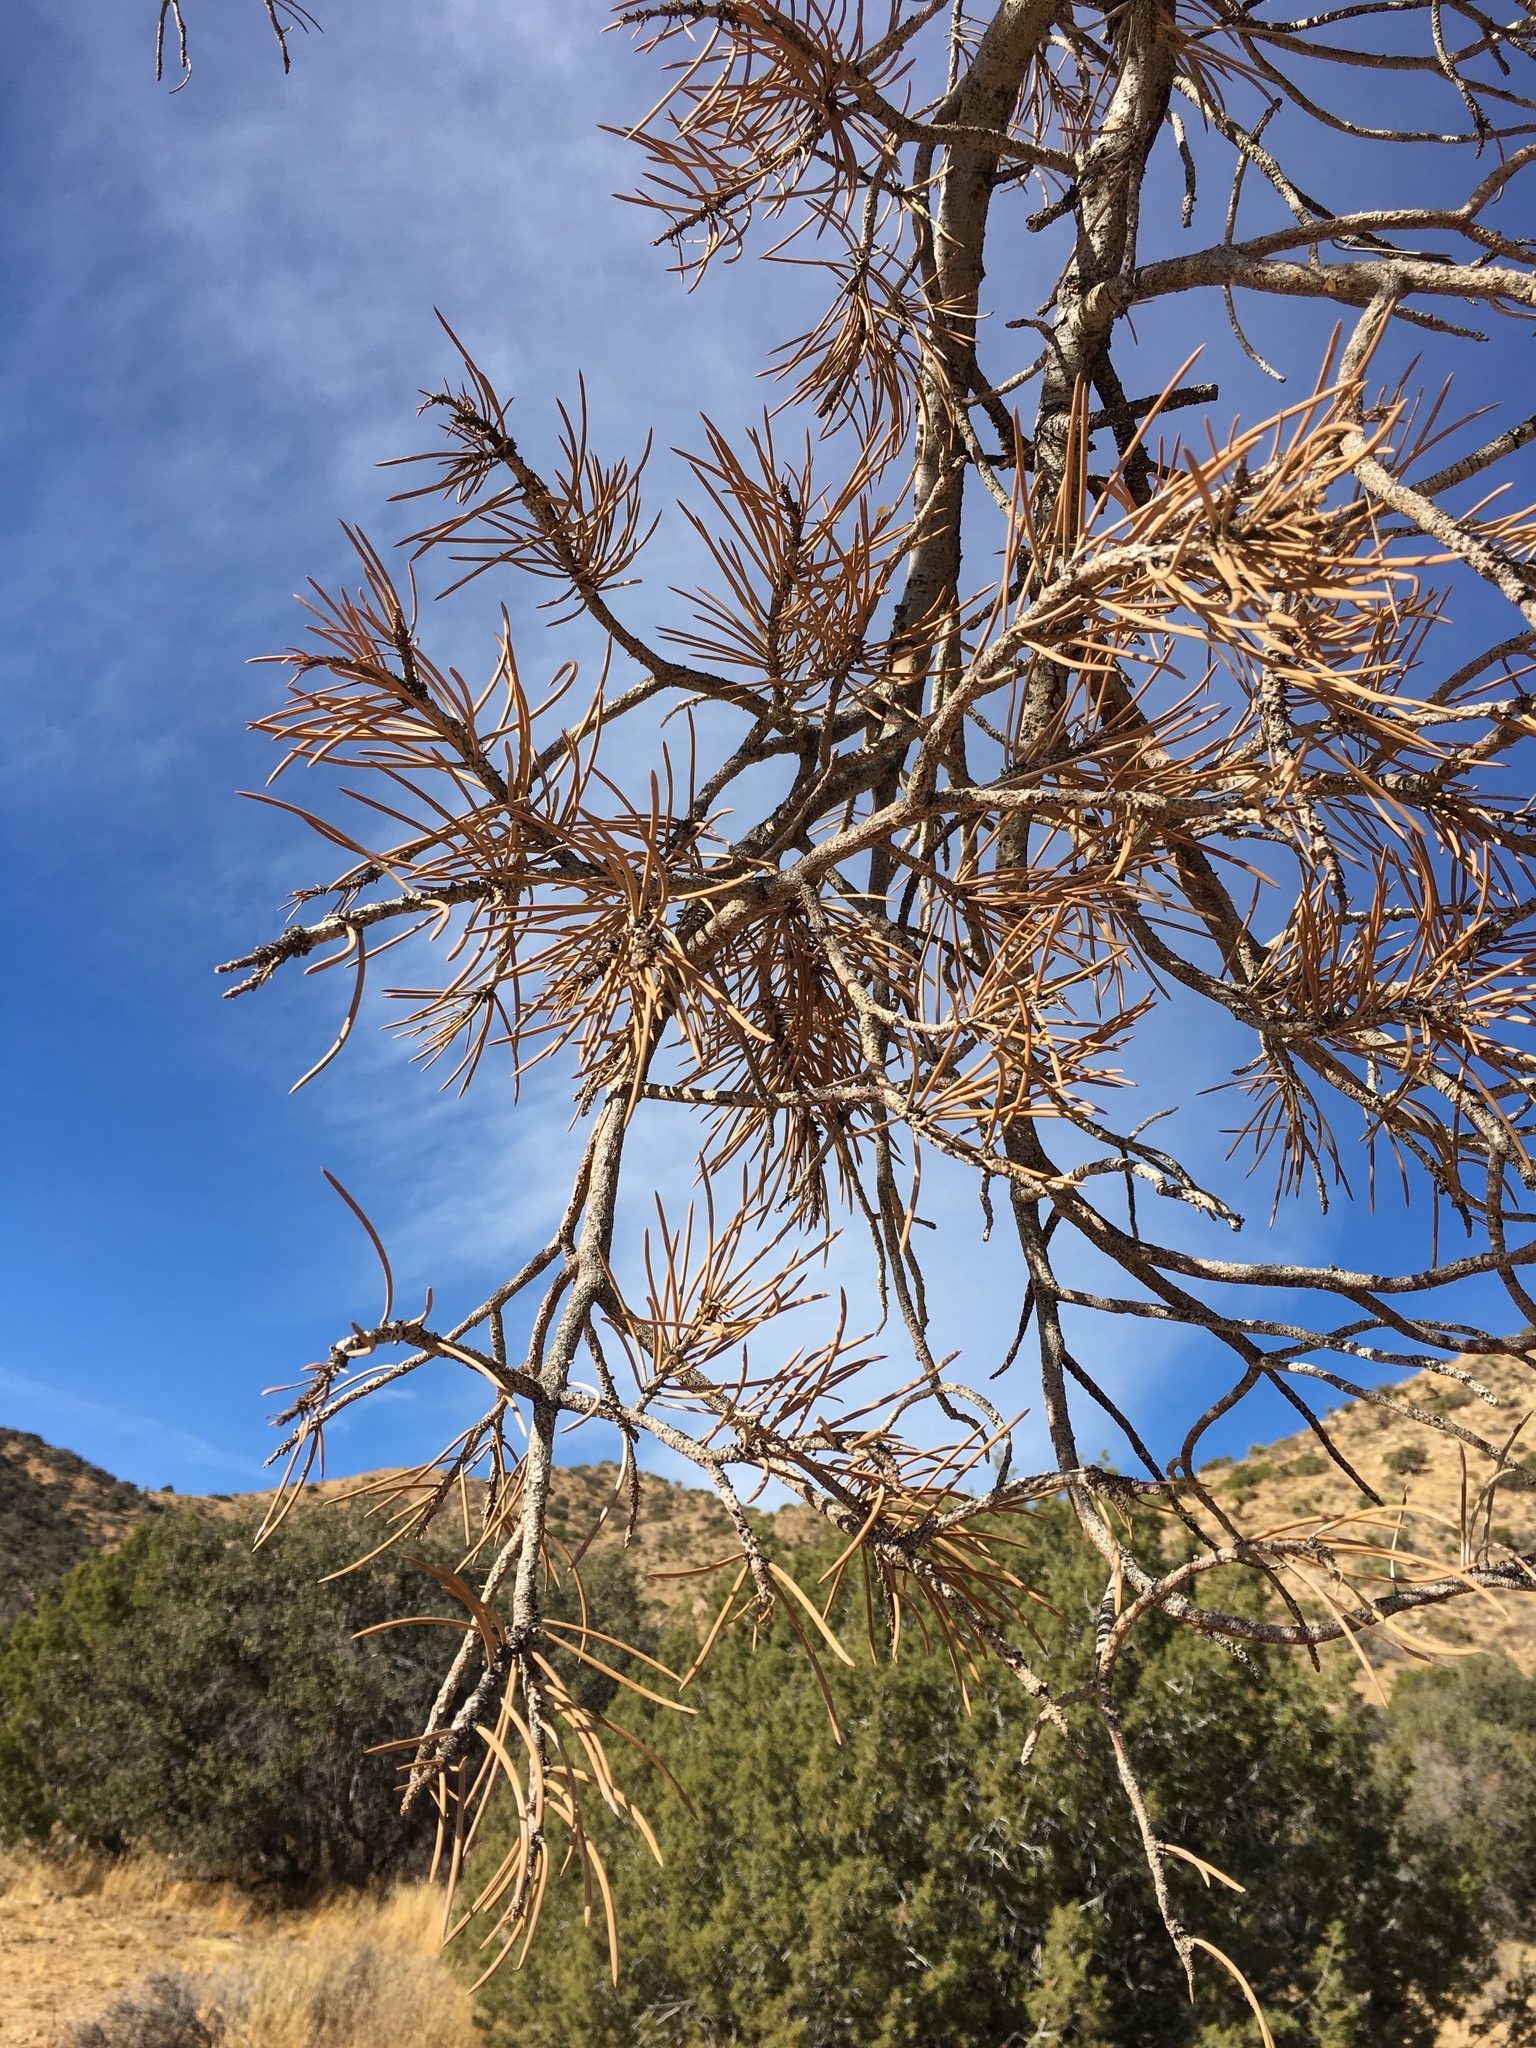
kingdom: Plantae
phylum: Tracheophyta
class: Pinopsida
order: Pinales
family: Pinaceae
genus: Pinus
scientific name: Pinus monophylla
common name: One-leaved nut pine
